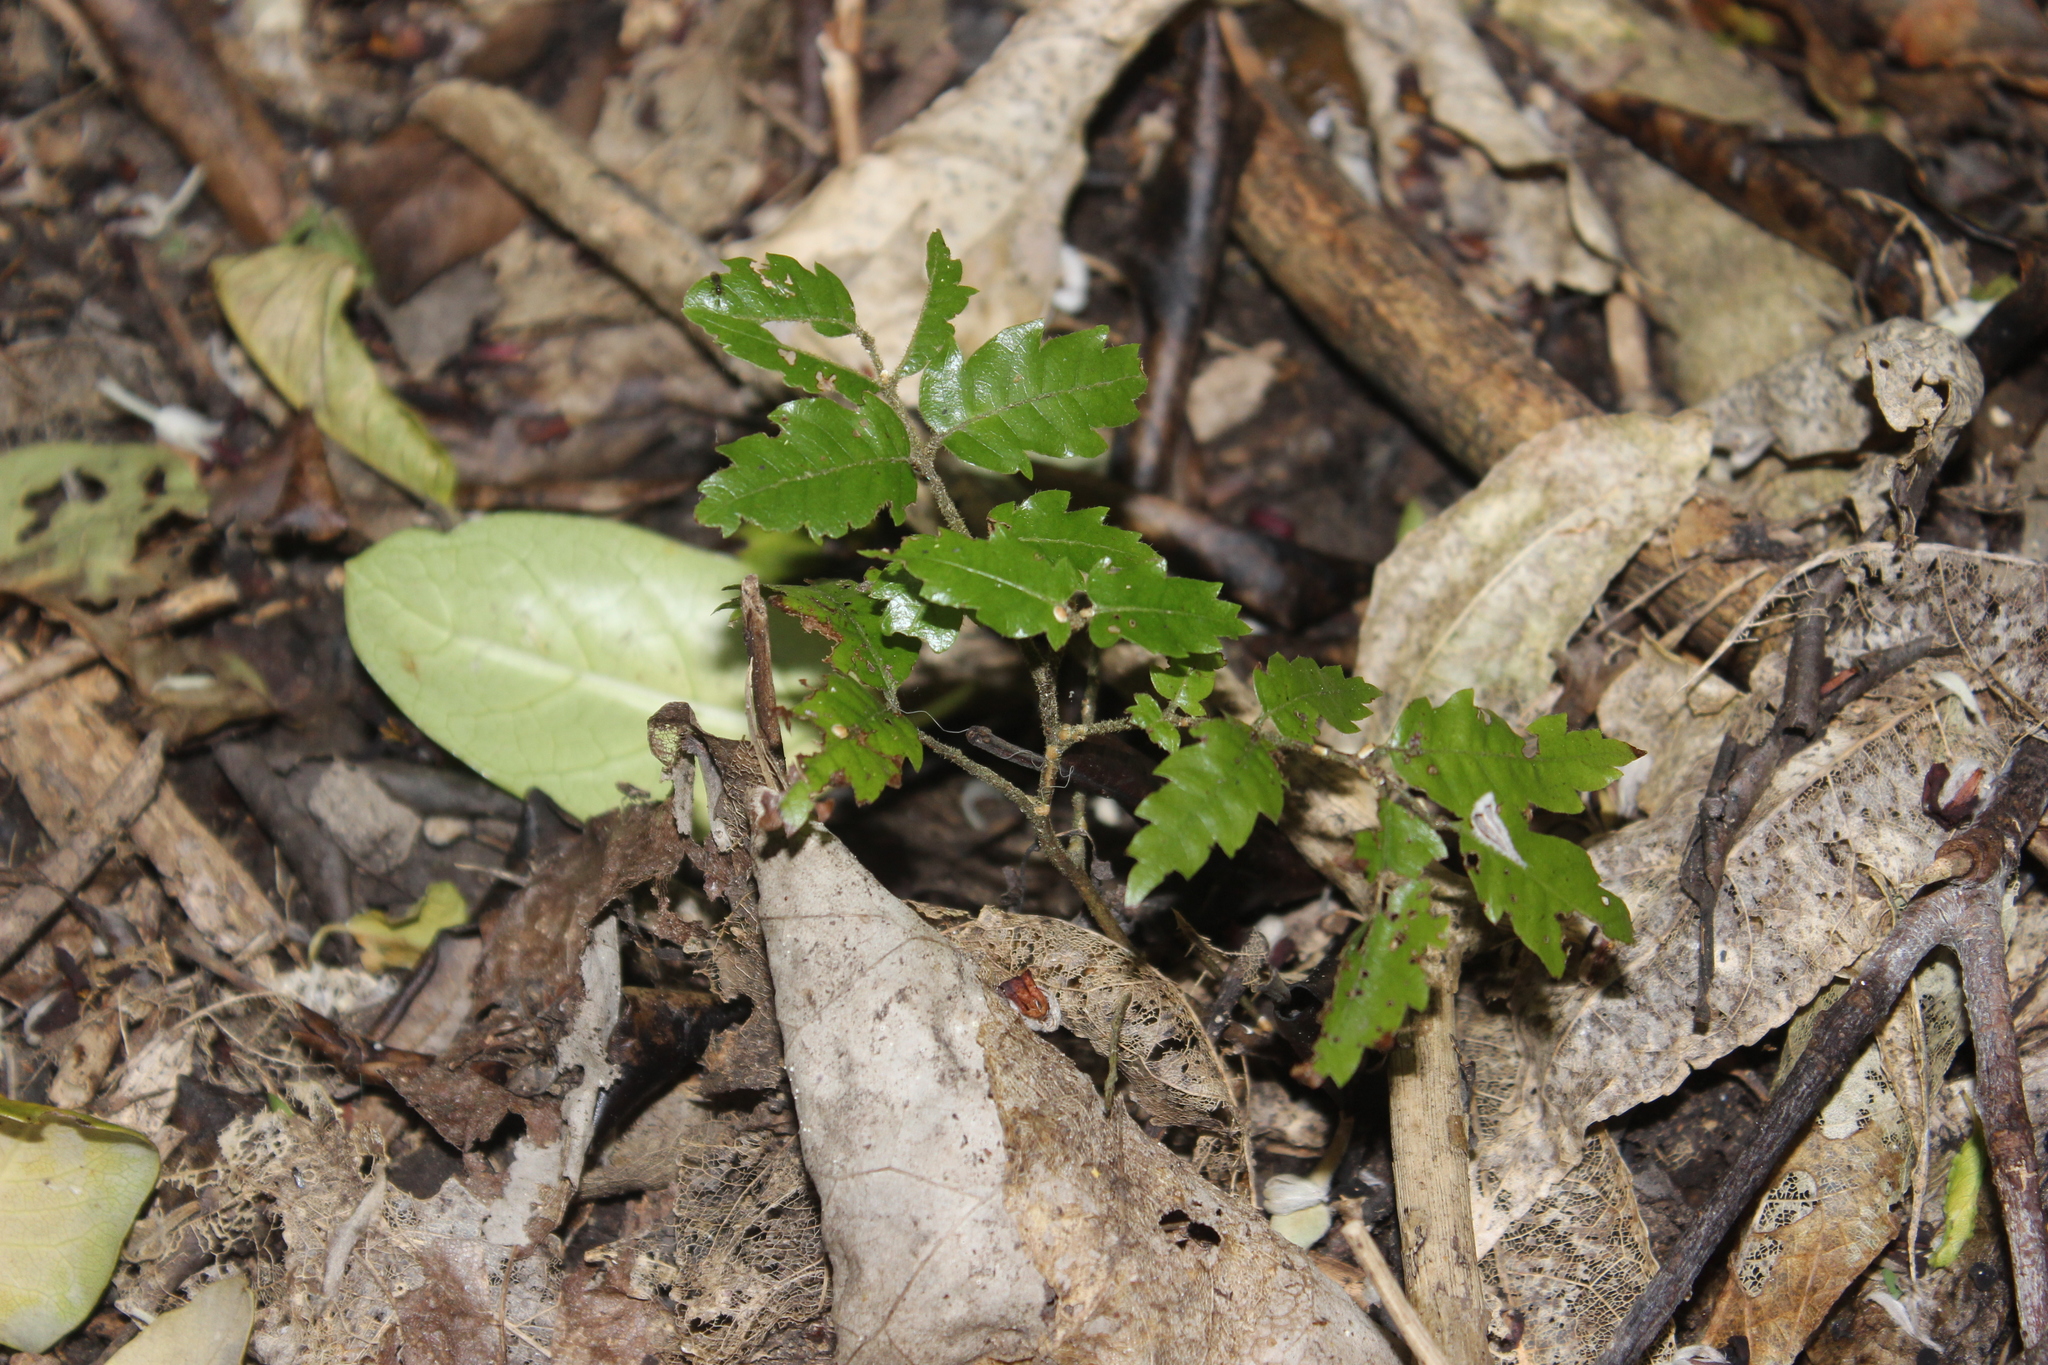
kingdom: Plantae
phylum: Tracheophyta
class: Magnoliopsida
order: Sapindales
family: Sapindaceae
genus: Alectryon
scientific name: Alectryon excelsus
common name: Three kings titoki
